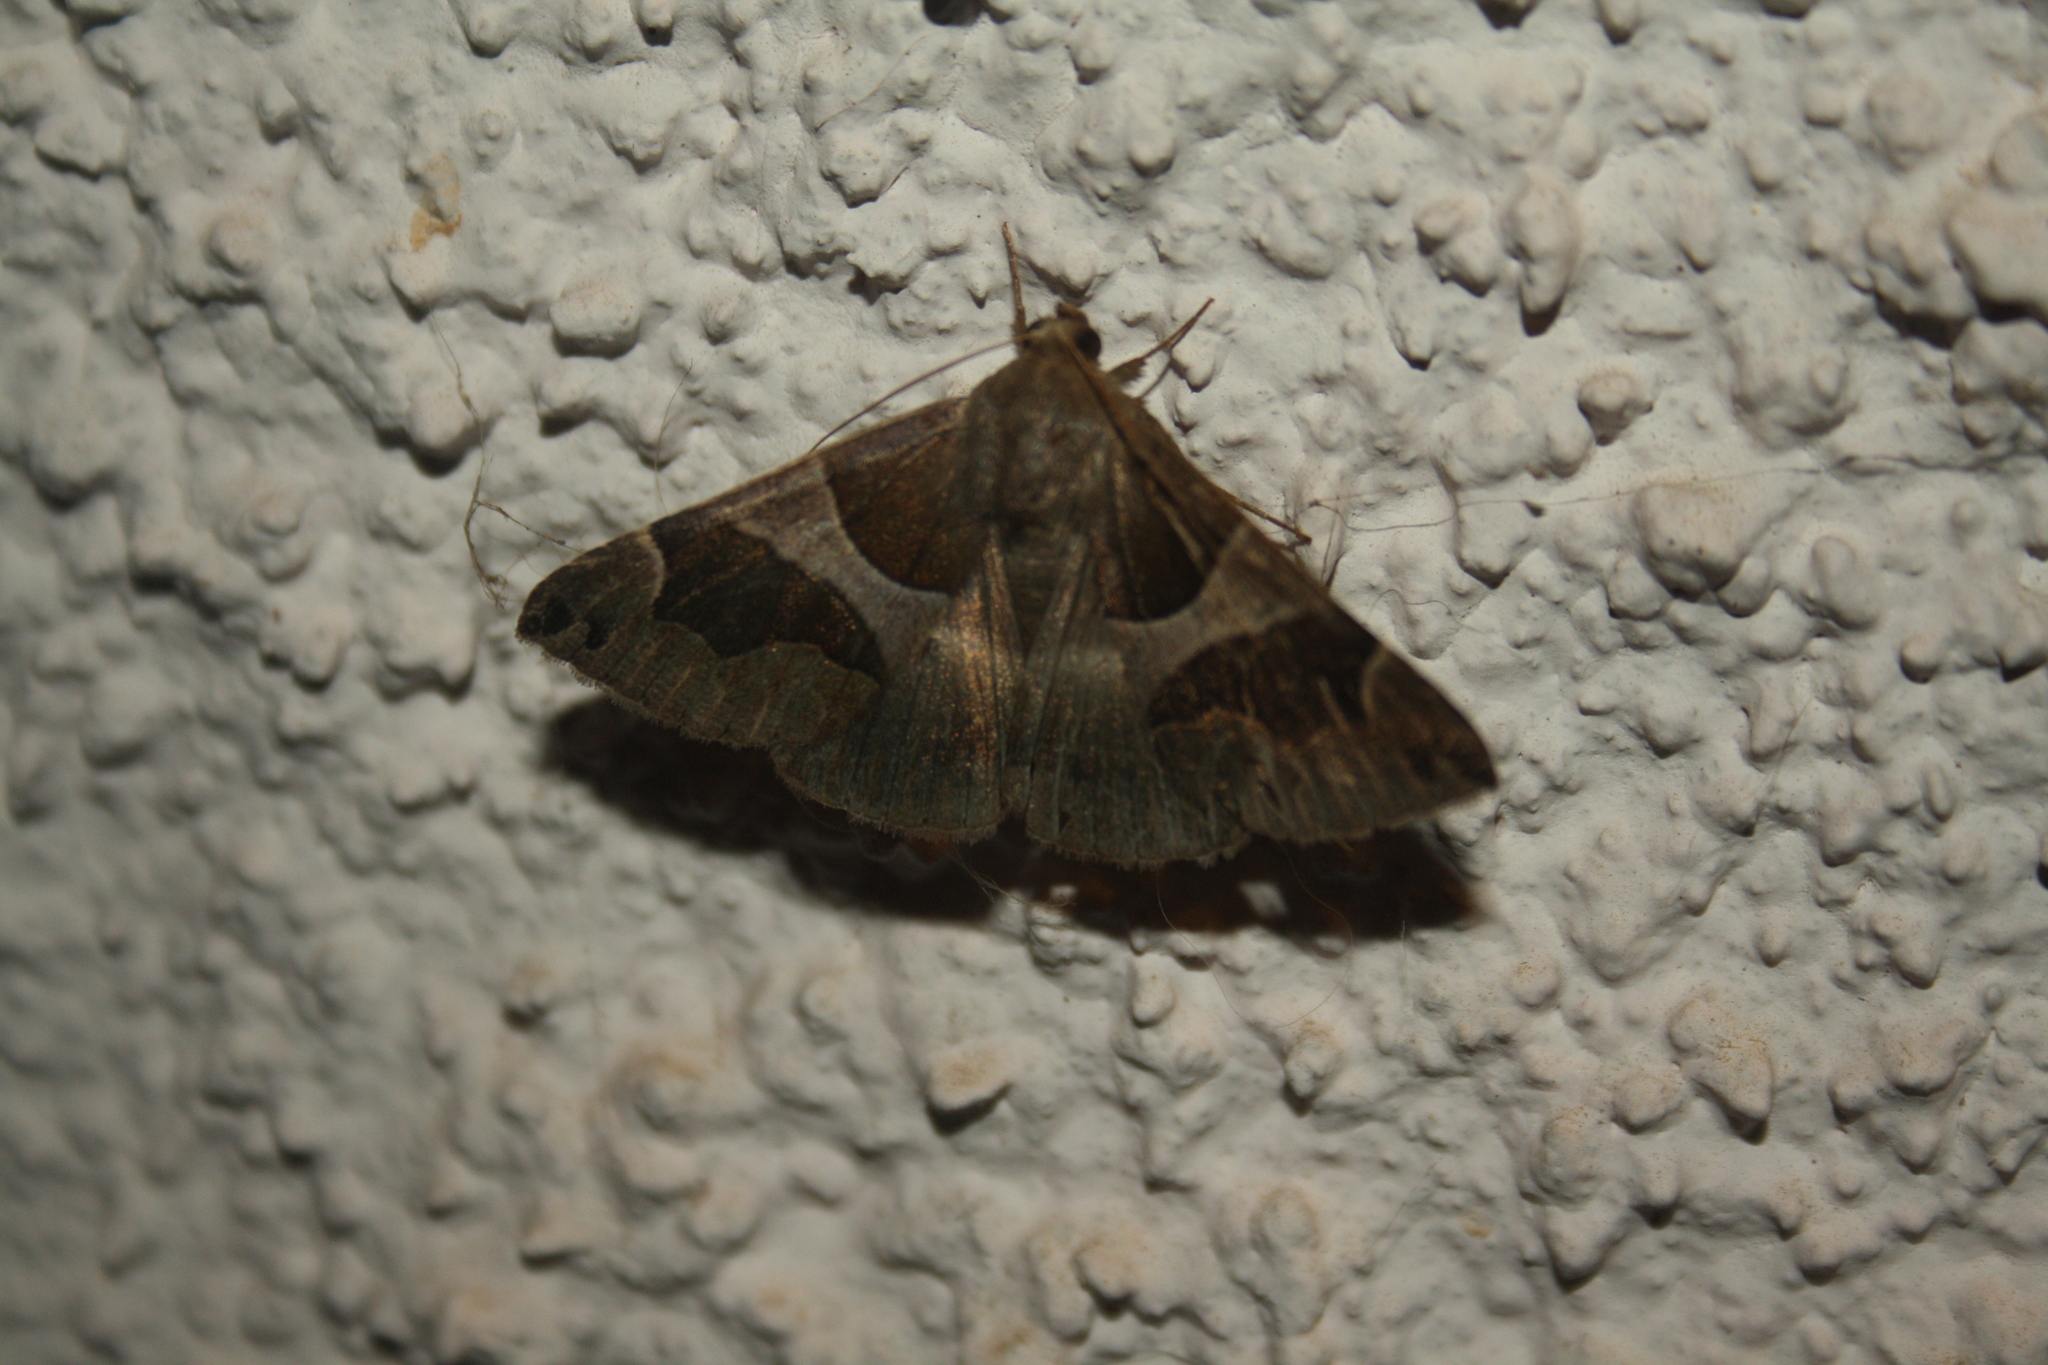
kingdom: Animalia
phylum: Arthropoda
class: Insecta
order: Lepidoptera
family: Erebidae
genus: Dysgonia
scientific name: Dysgonia algira
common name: Passenger
